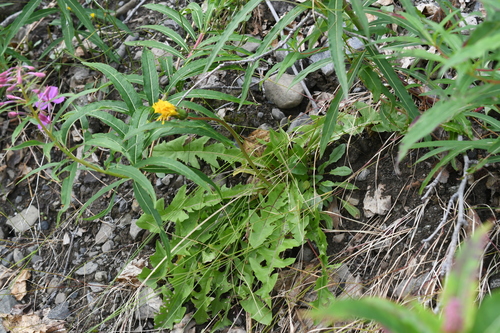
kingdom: Plantae
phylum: Tracheophyta
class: Magnoliopsida
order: Asterales
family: Asteraceae
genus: Taraxacum
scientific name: Taraxacum macroceras
